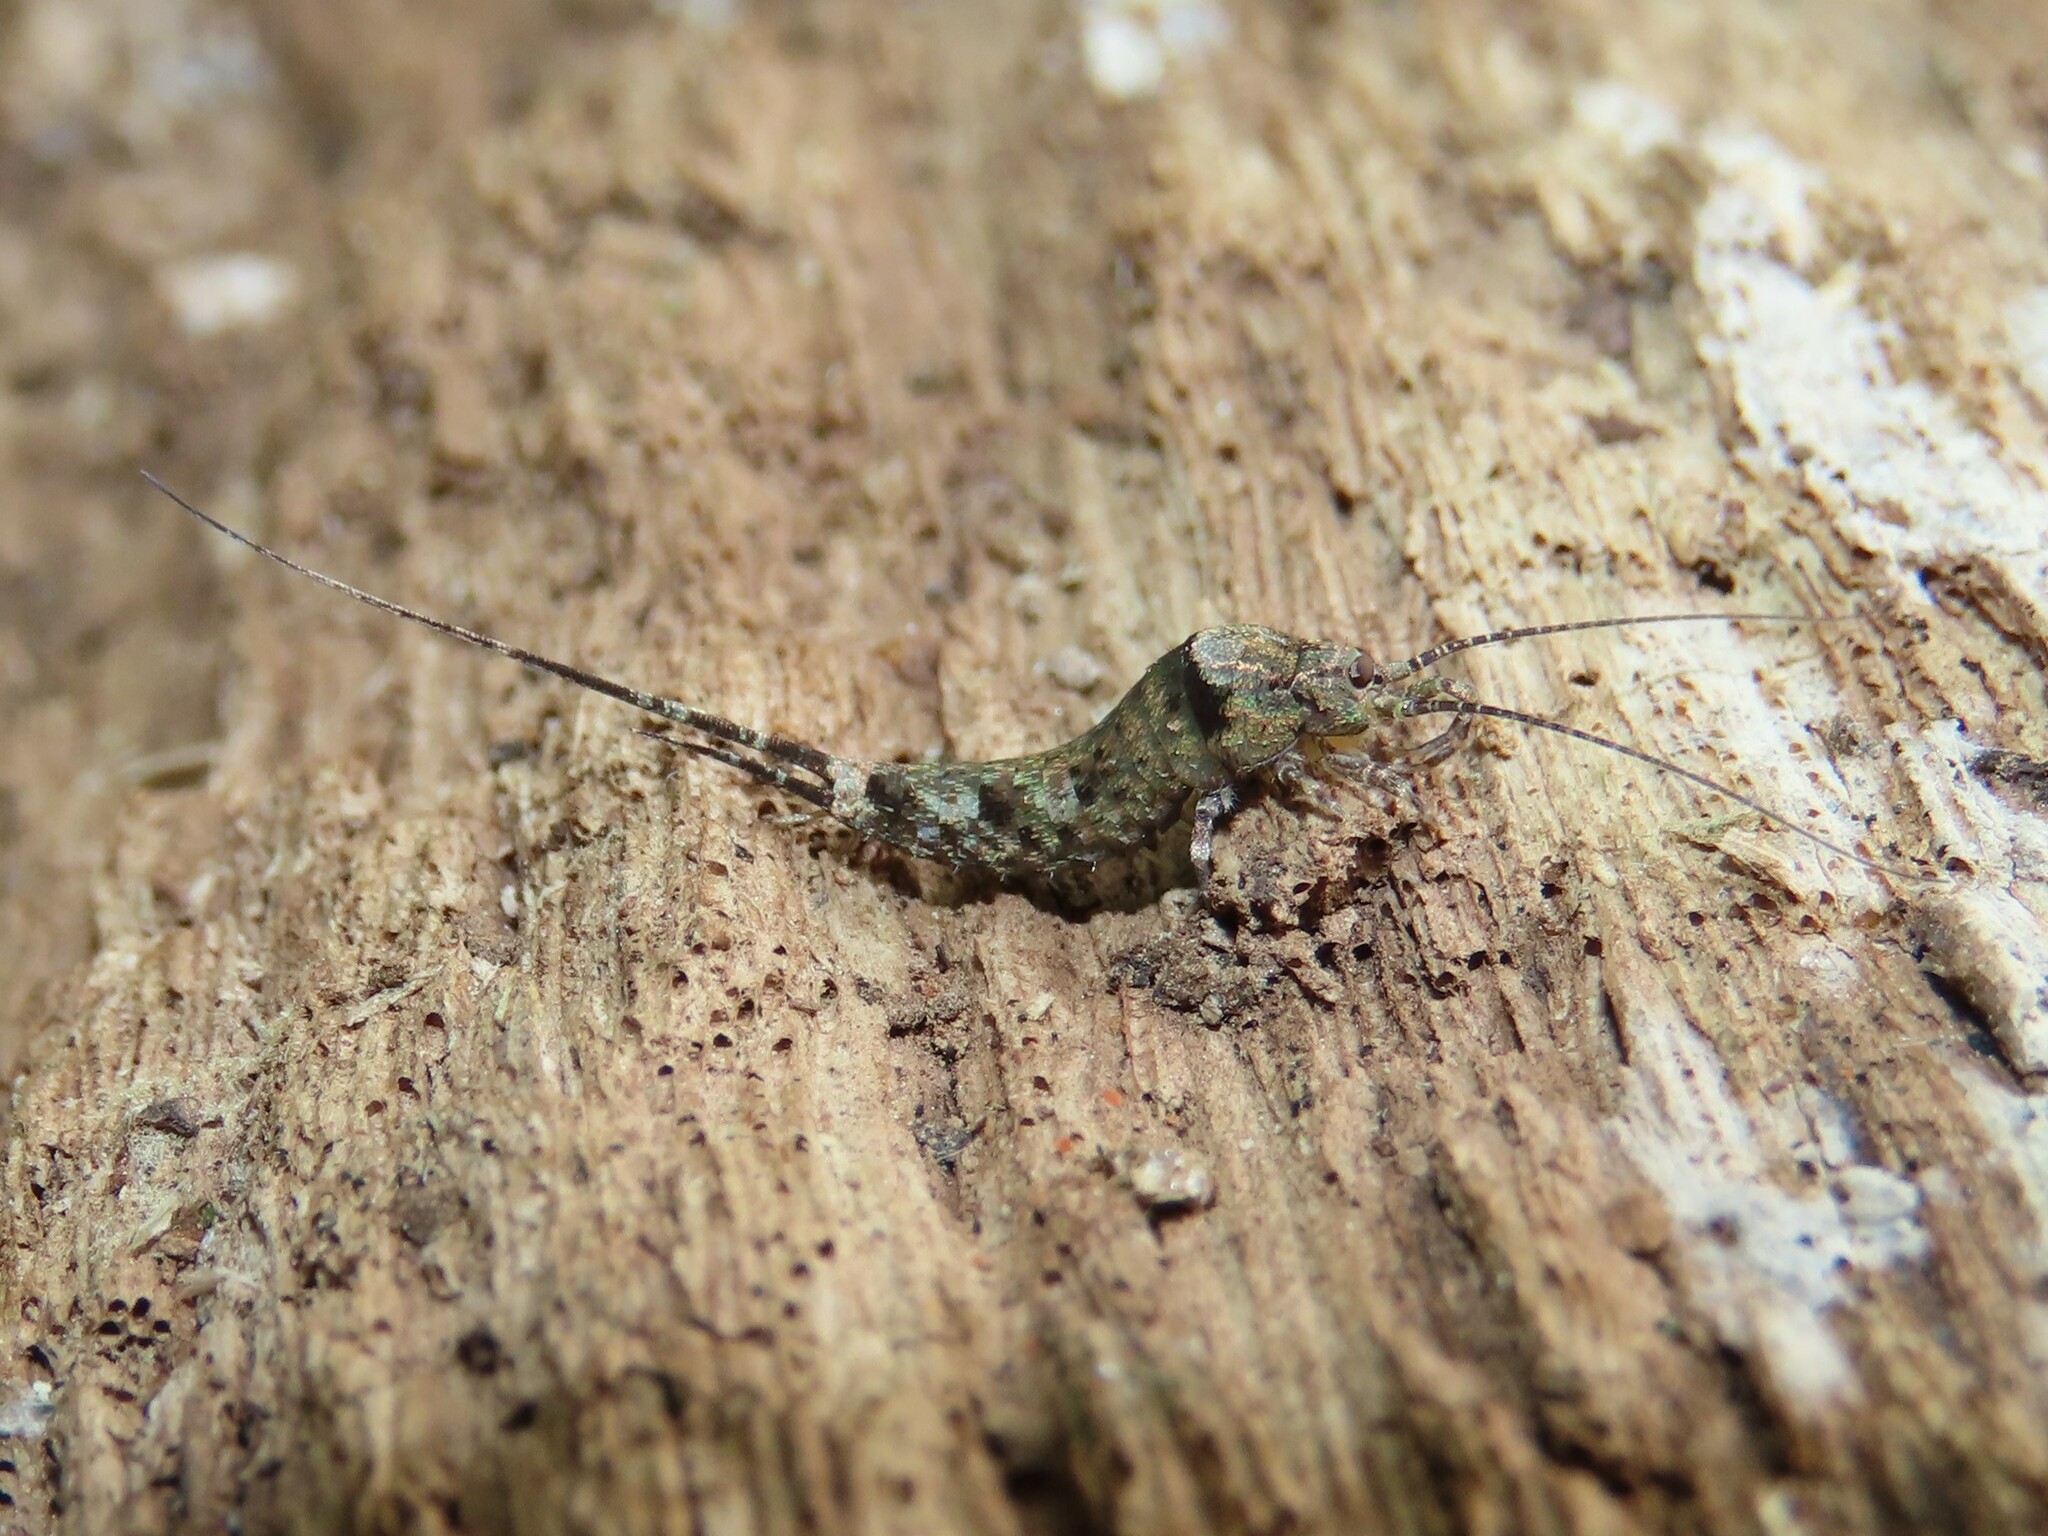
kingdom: Animalia
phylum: Arthropoda
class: Insecta
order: Archaeognatha
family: Machilidae
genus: Trigoniophthalmus
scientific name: Trigoniophthalmus alternatus
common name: Jumping bristletail
